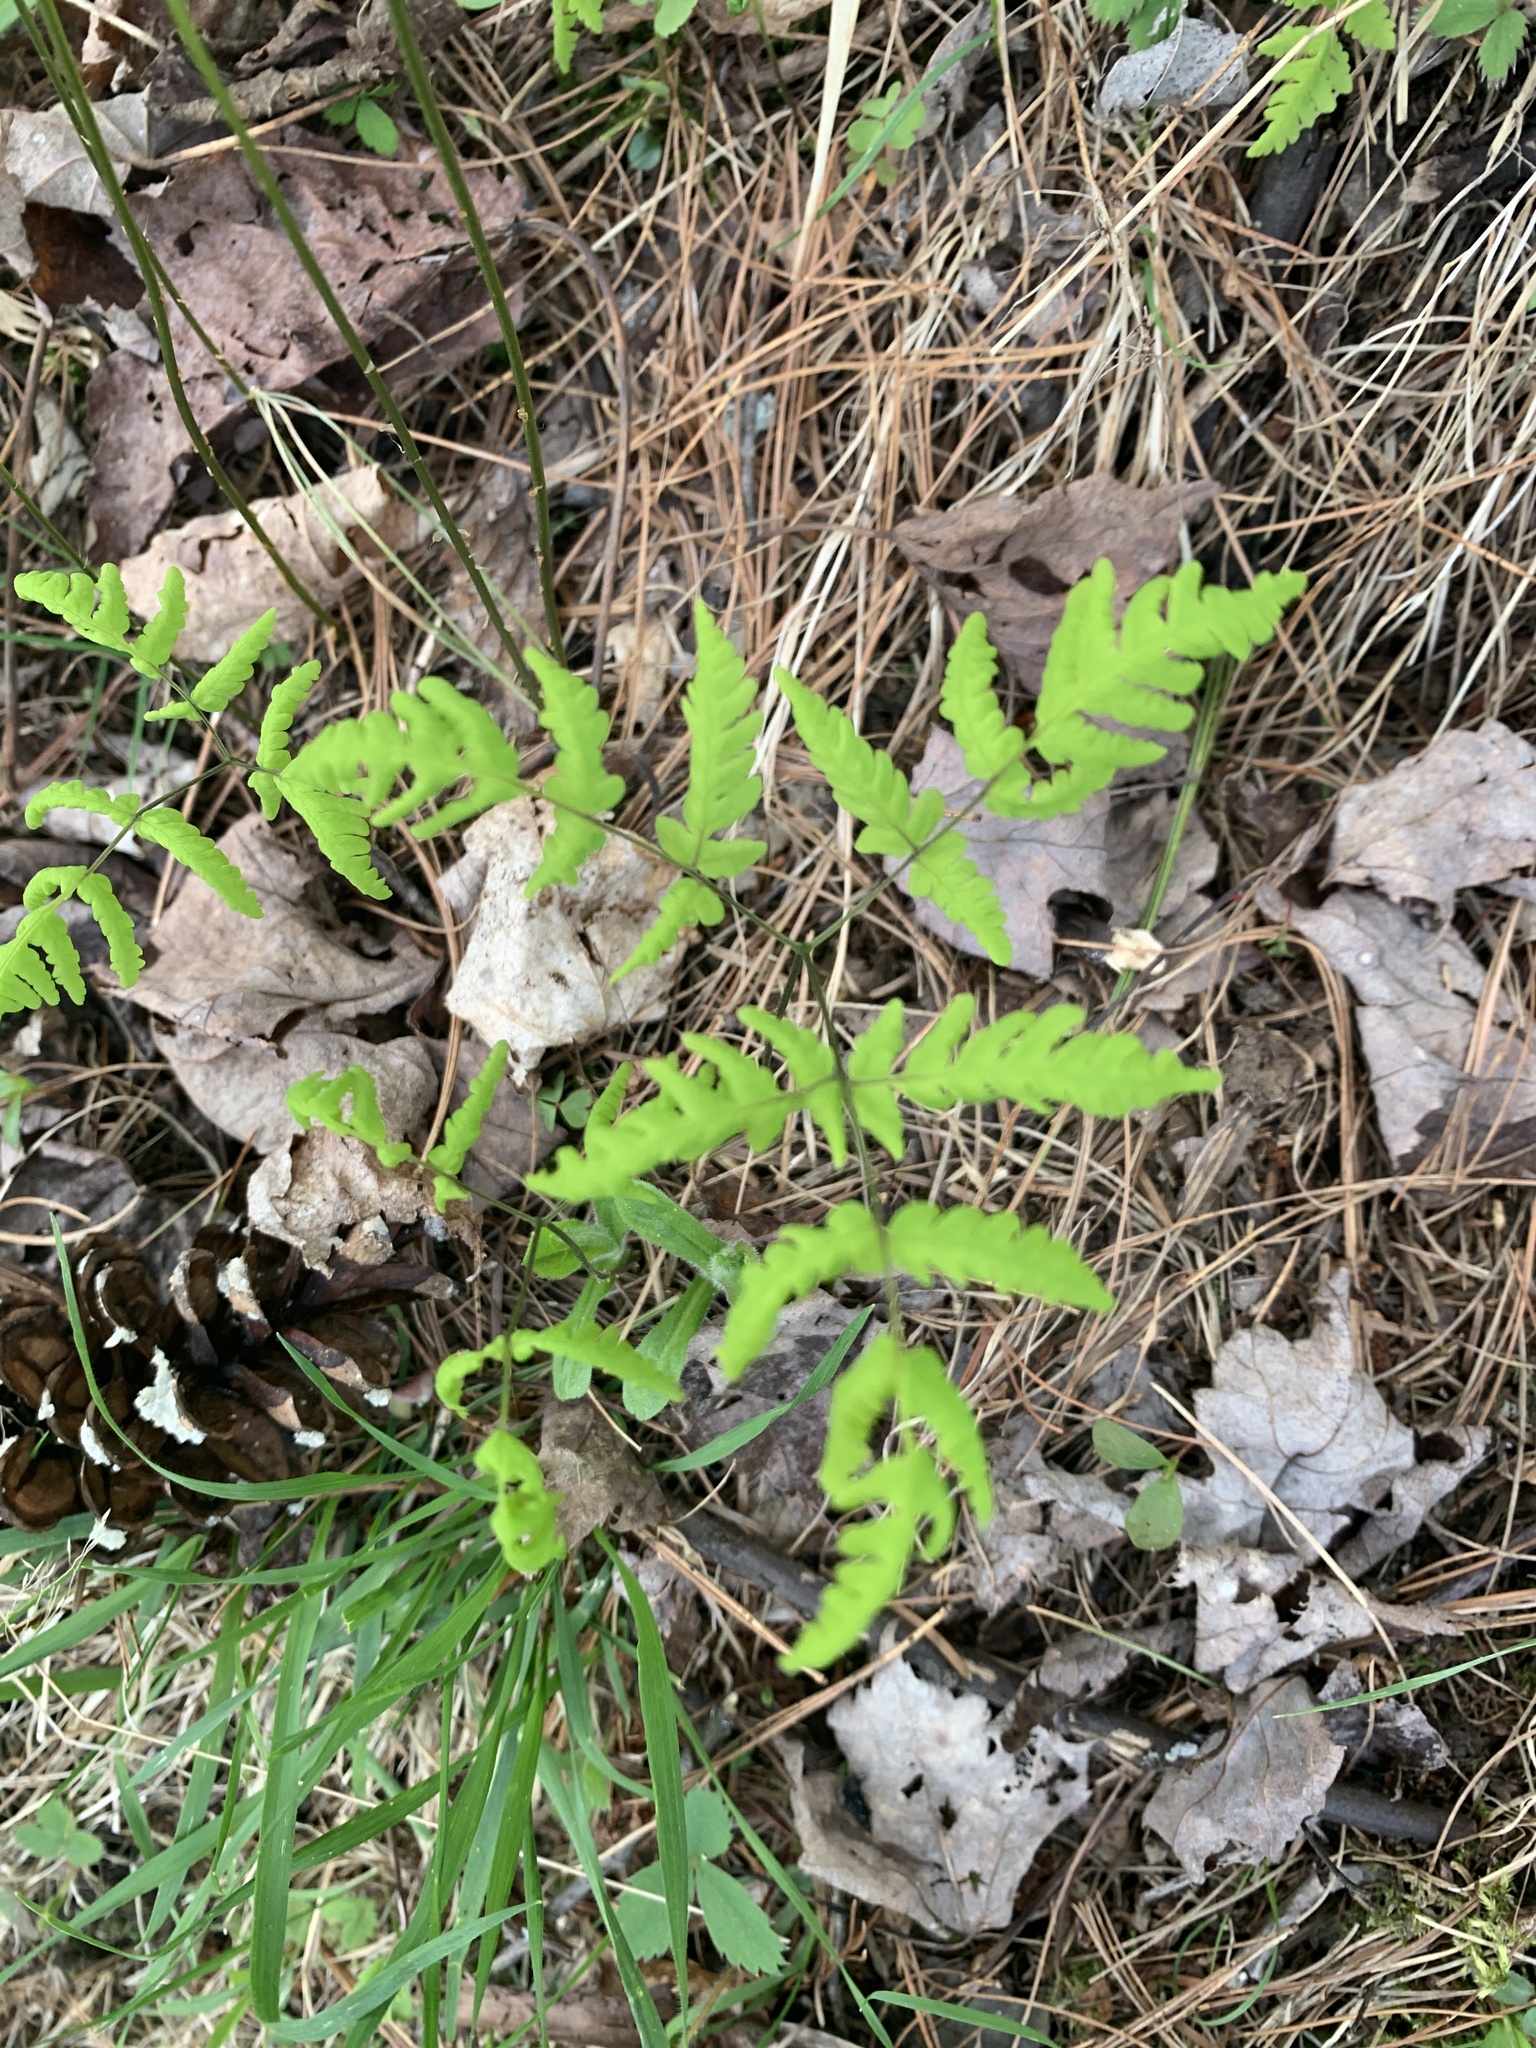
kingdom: Plantae
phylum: Tracheophyta
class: Polypodiopsida
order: Polypodiales
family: Cystopteridaceae
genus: Gymnocarpium
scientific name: Gymnocarpium dryopteris
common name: Oak fern
